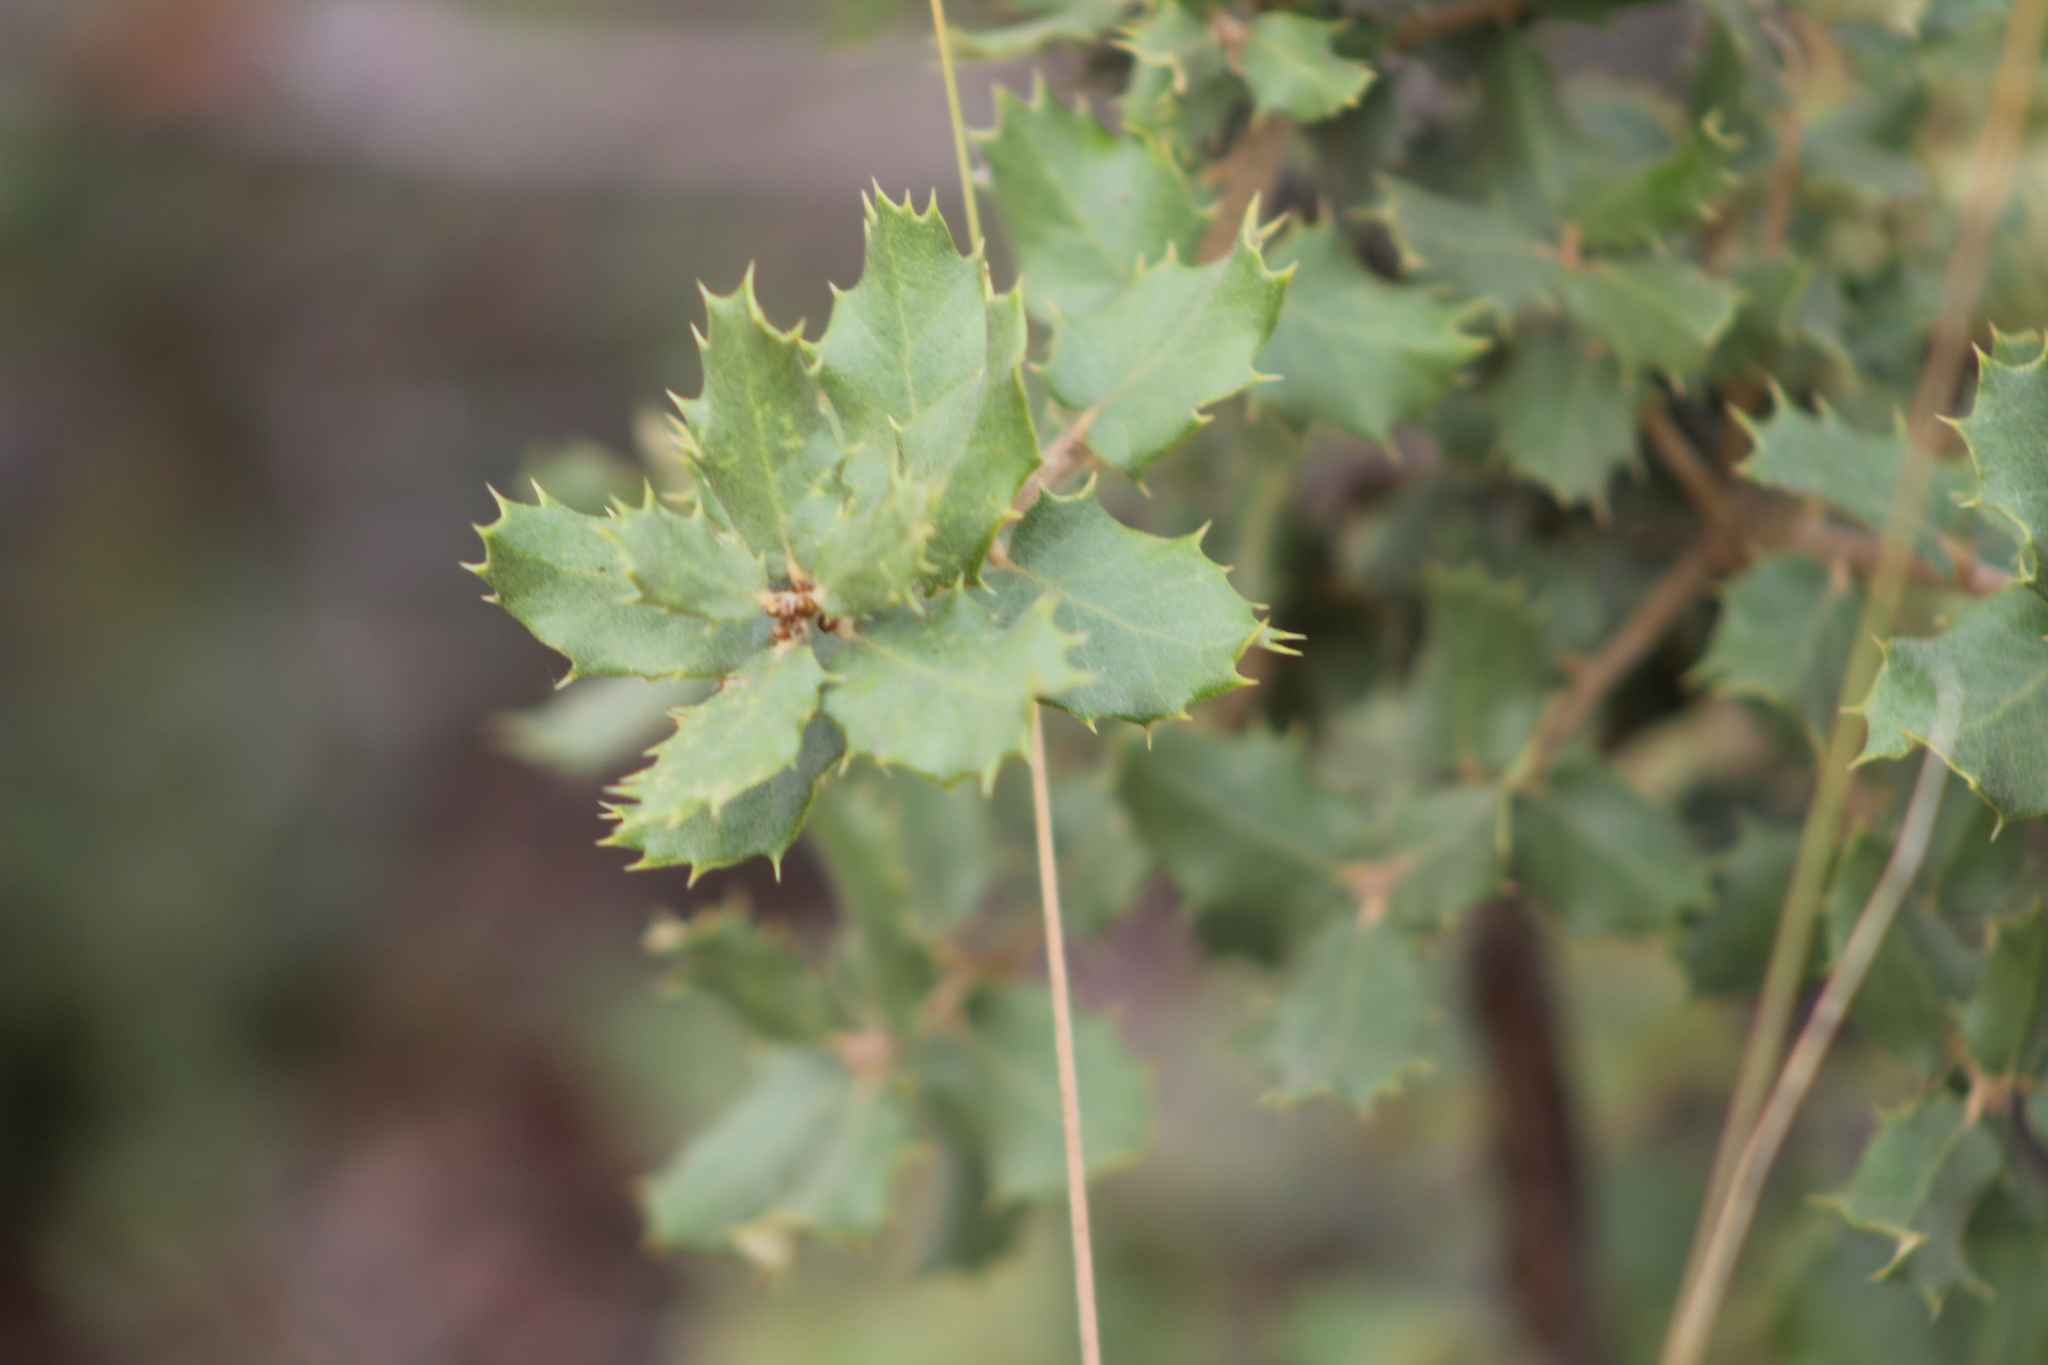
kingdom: Plantae
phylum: Tracheophyta
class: Magnoliopsida
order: Fagales
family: Fagaceae
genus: Quercus
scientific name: Quercus rotundifolia
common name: Holm oak
